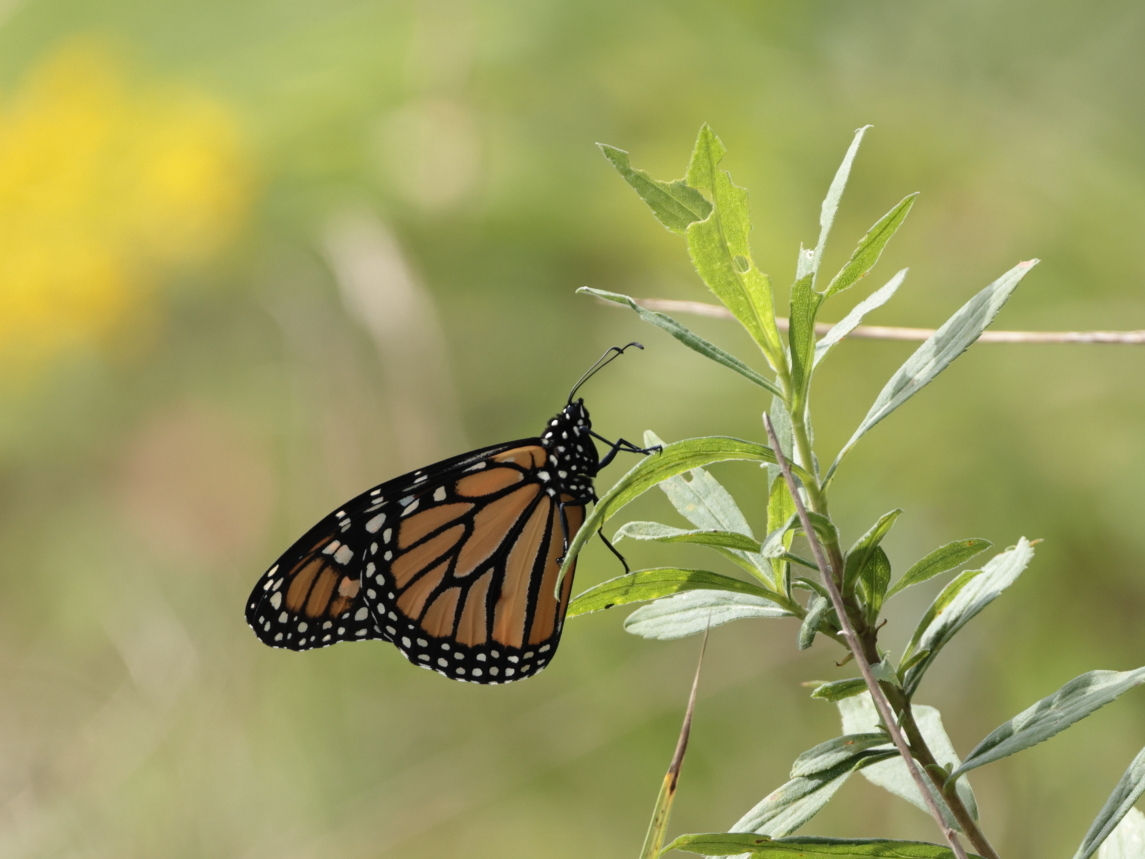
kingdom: Animalia
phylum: Arthropoda
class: Insecta
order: Lepidoptera
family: Nymphalidae
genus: Danaus
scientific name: Danaus plexippus
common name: Monarch
